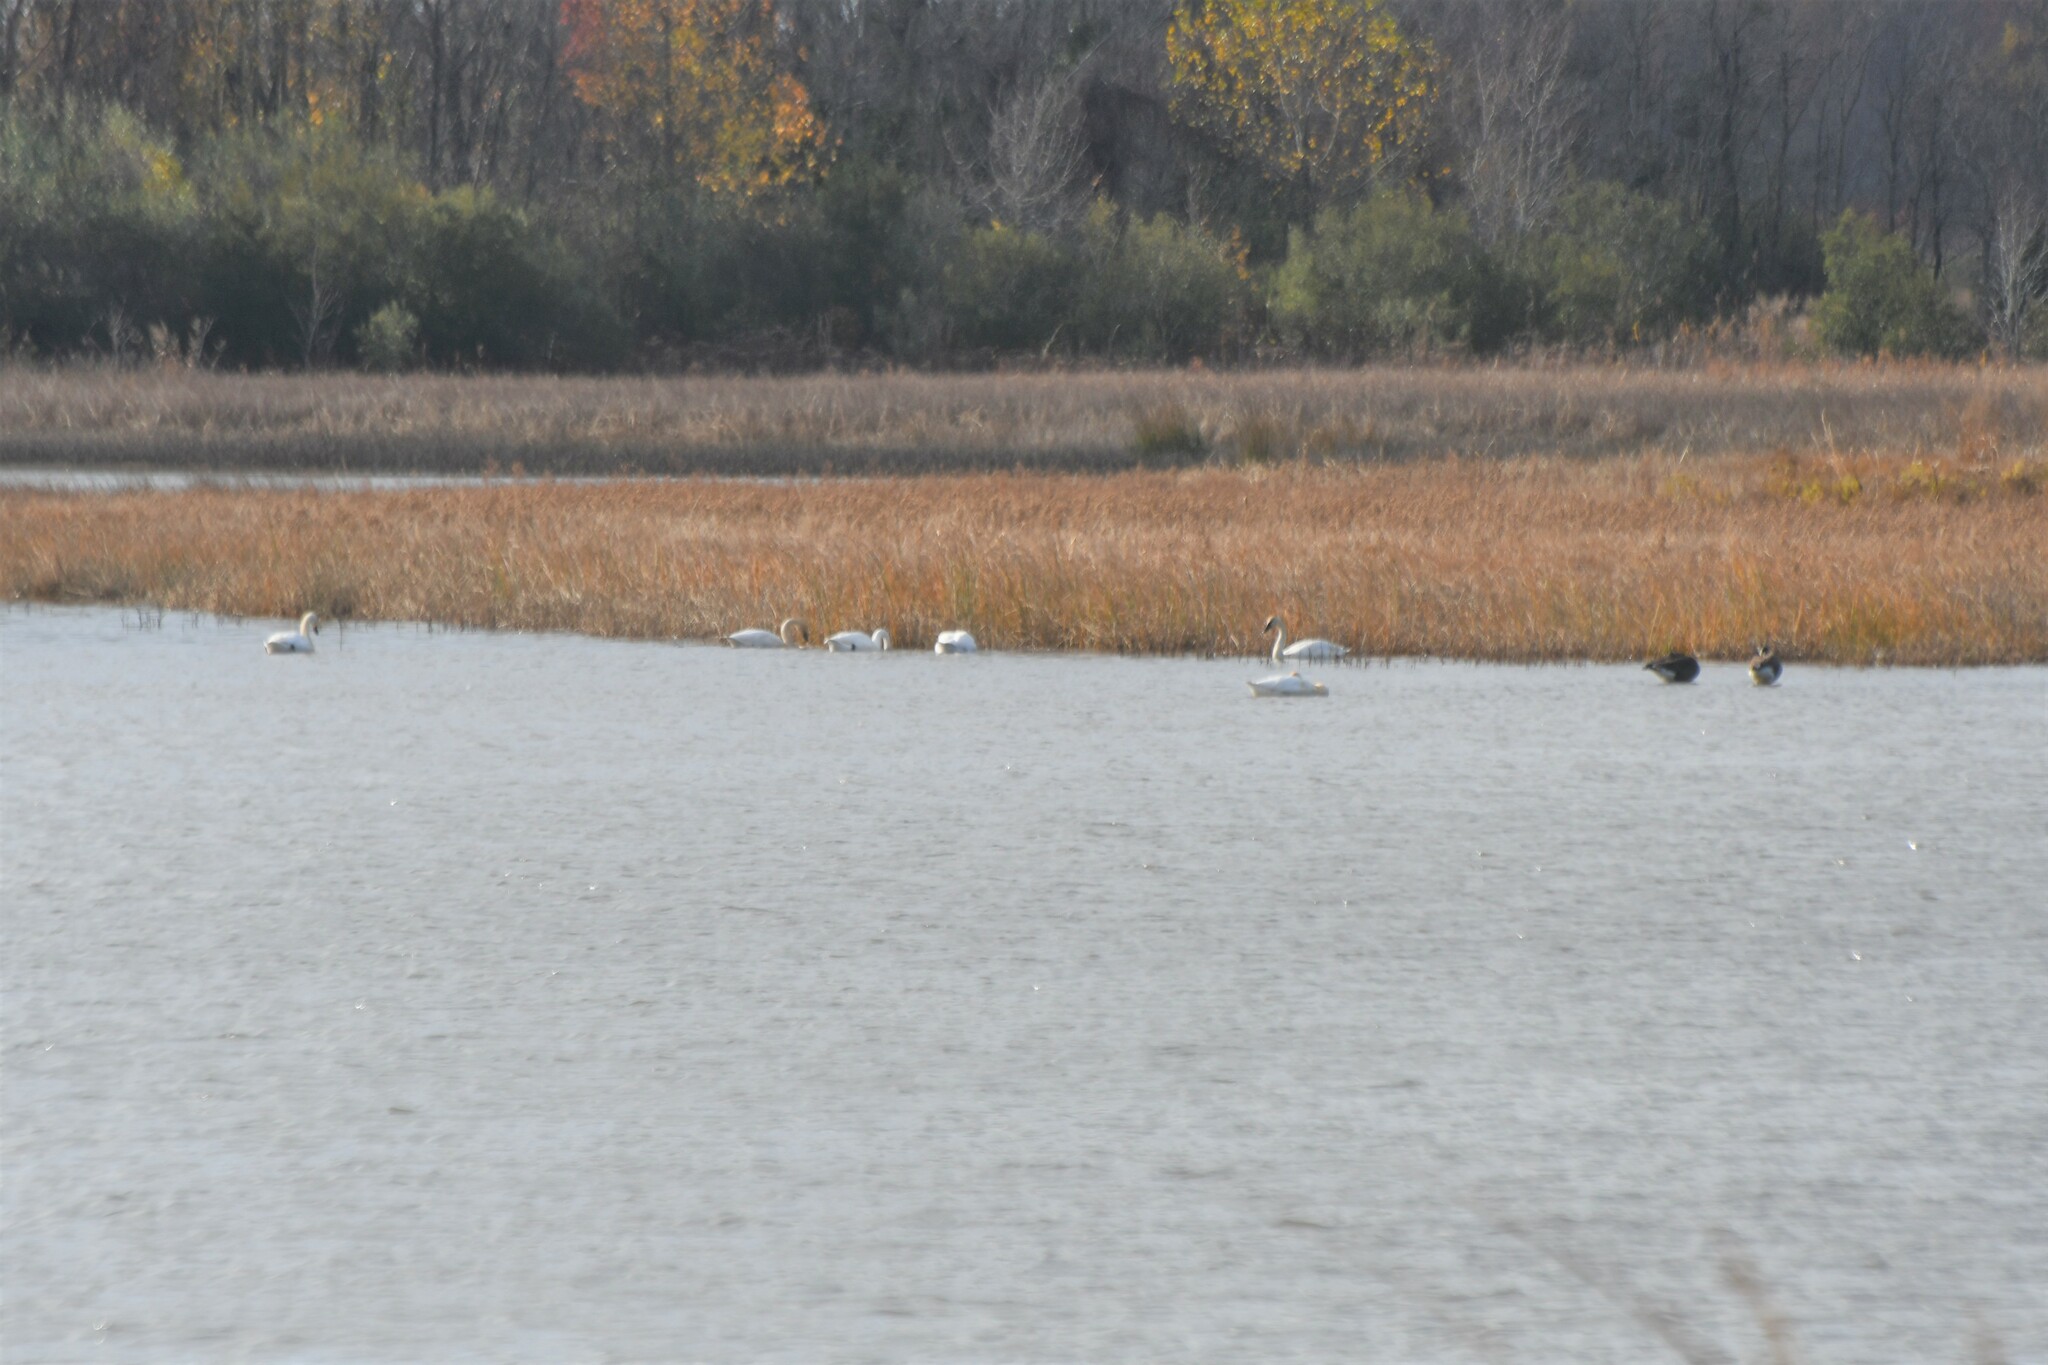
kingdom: Animalia
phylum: Chordata
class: Aves
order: Anseriformes
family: Anatidae
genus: Cygnus
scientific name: Cygnus columbianus
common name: Tundra swan
